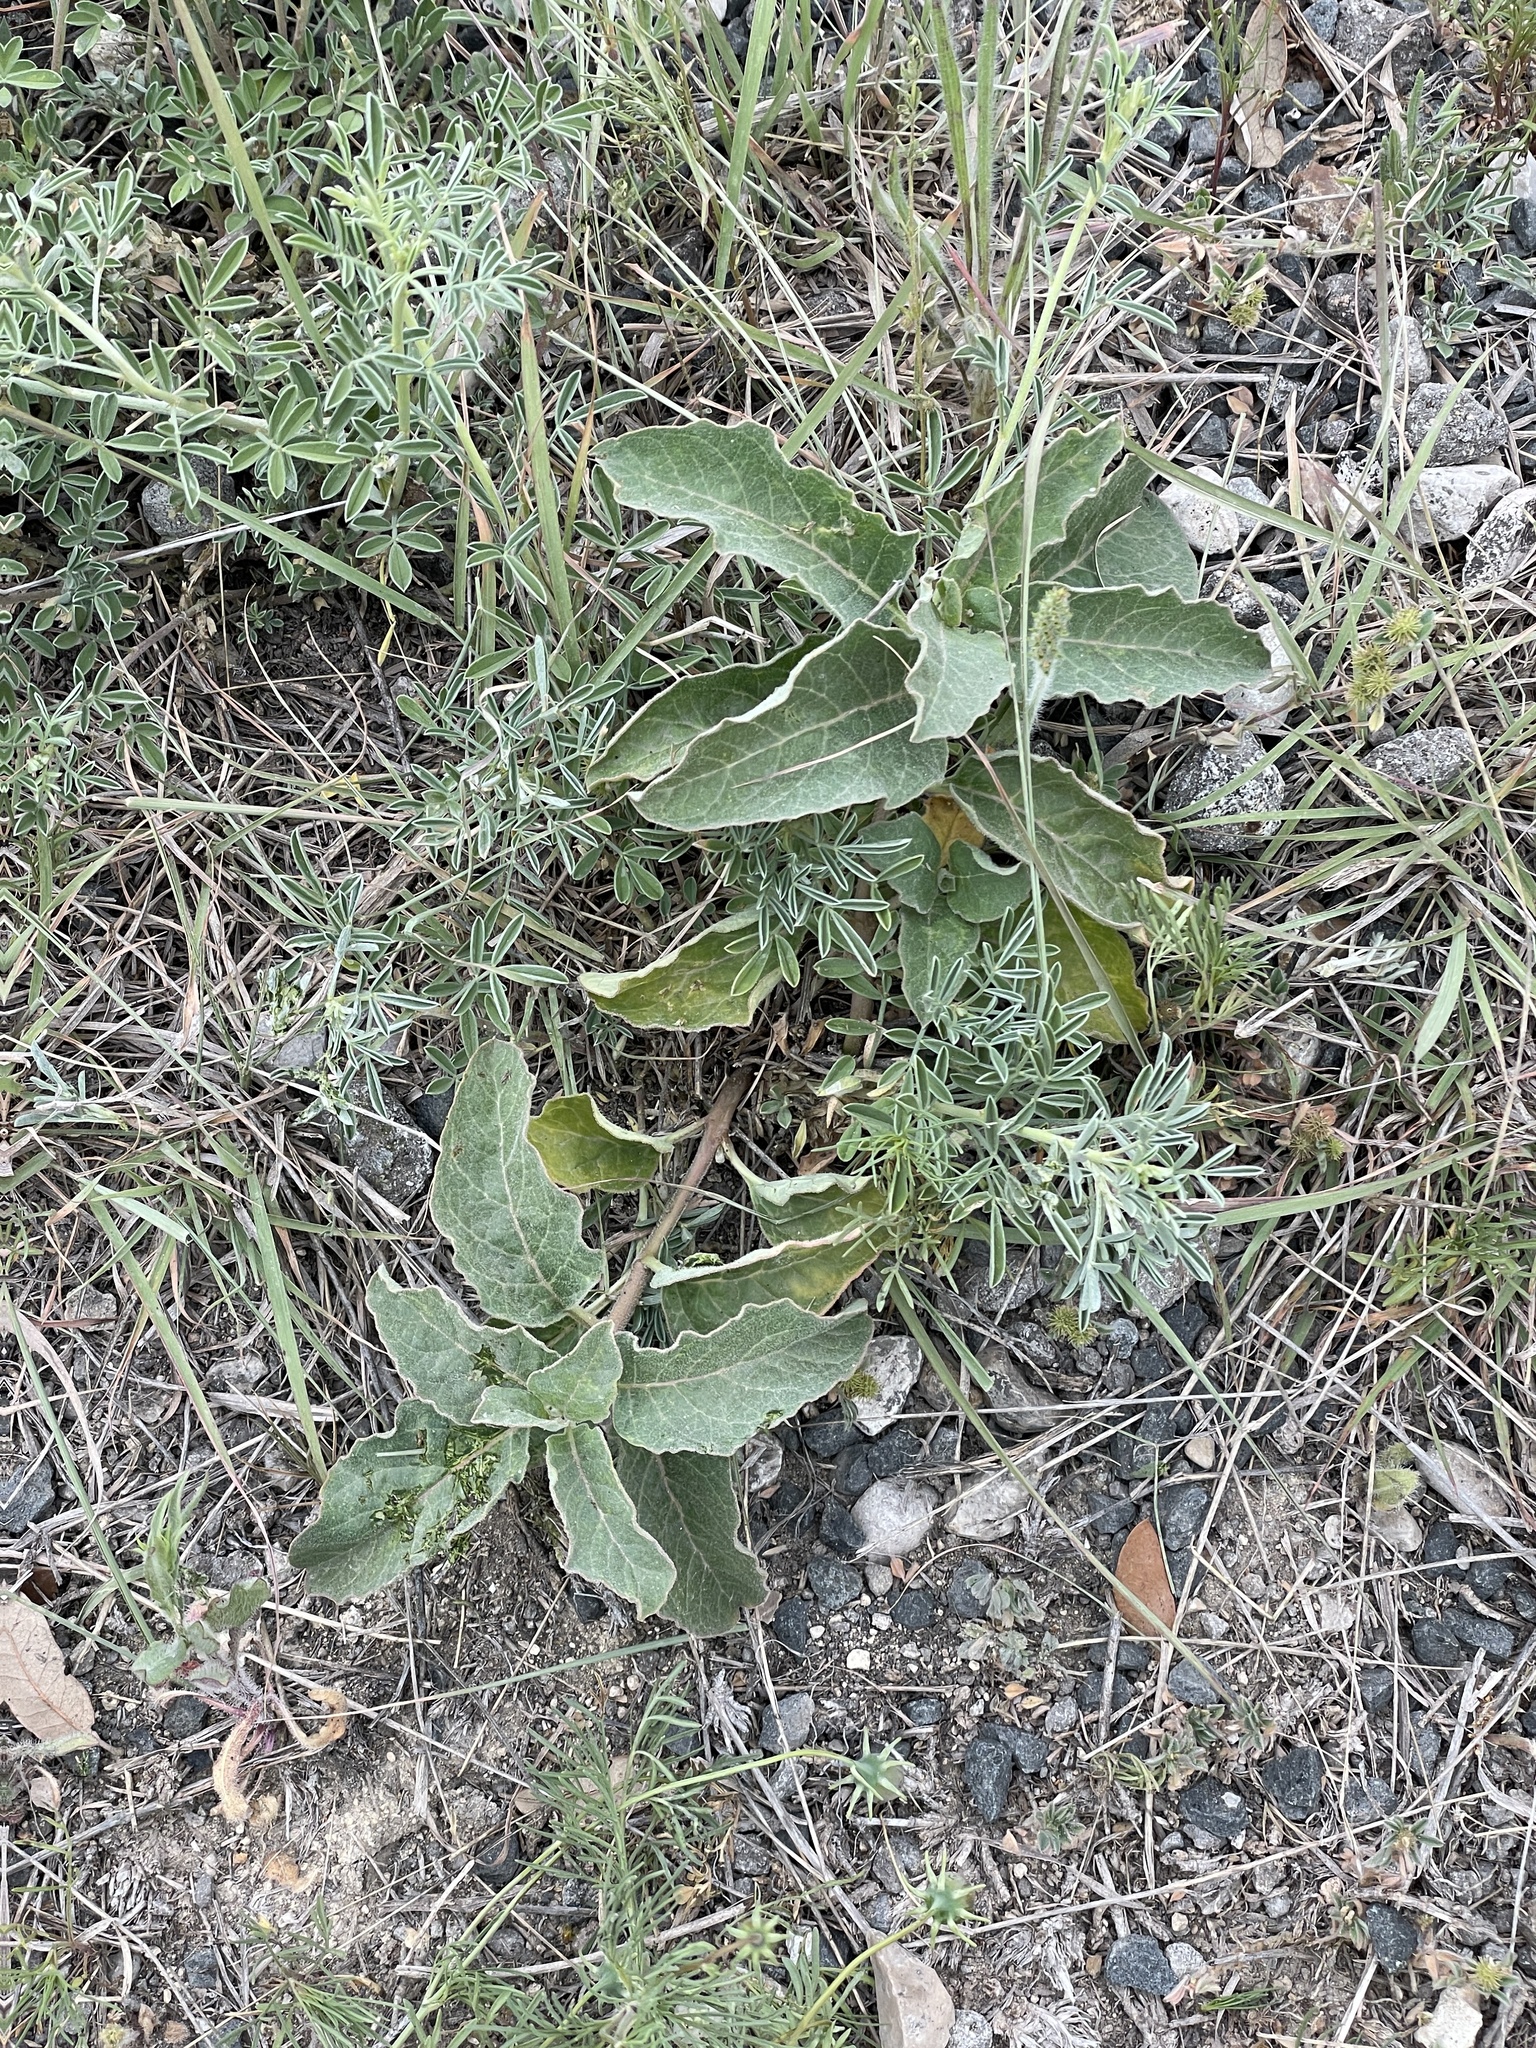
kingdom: Plantae
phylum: Tracheophyta
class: Magnoliopsida
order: Gentianales
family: Apocynaceae
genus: Asclepias
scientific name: Asclepias oenotheroides
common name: Zizotes milkweed
